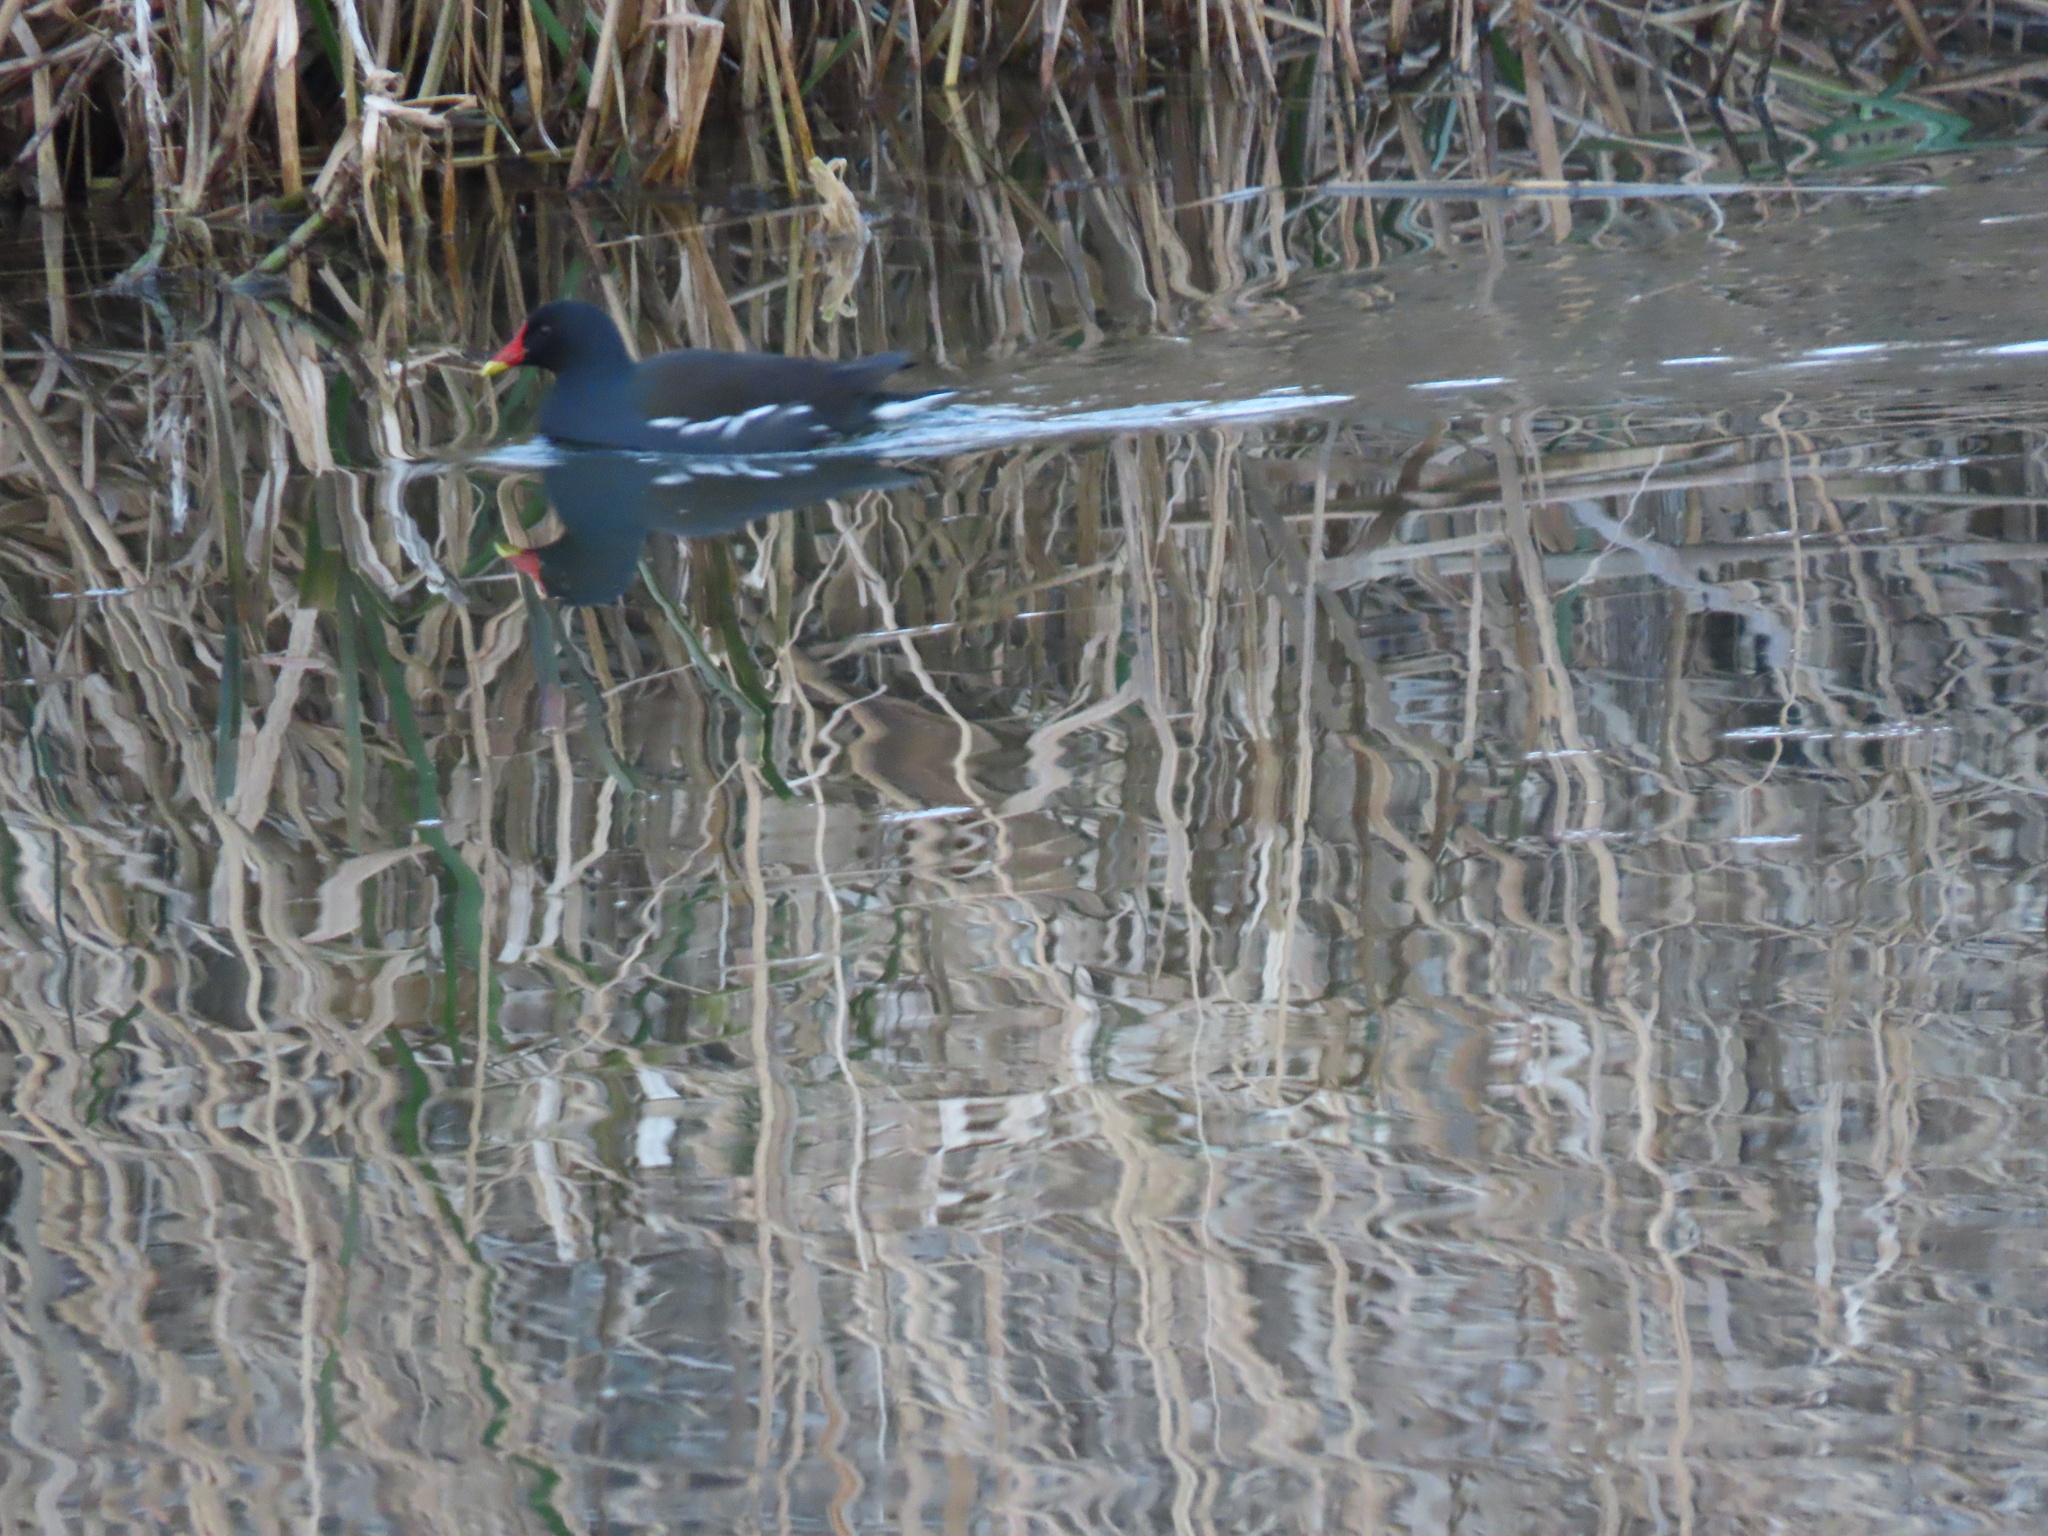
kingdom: Animalia
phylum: Chordata
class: Aves
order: Gruiformes
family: Rallidae
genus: Gallinula
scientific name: Gallinula chloropus
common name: Common moorhen
